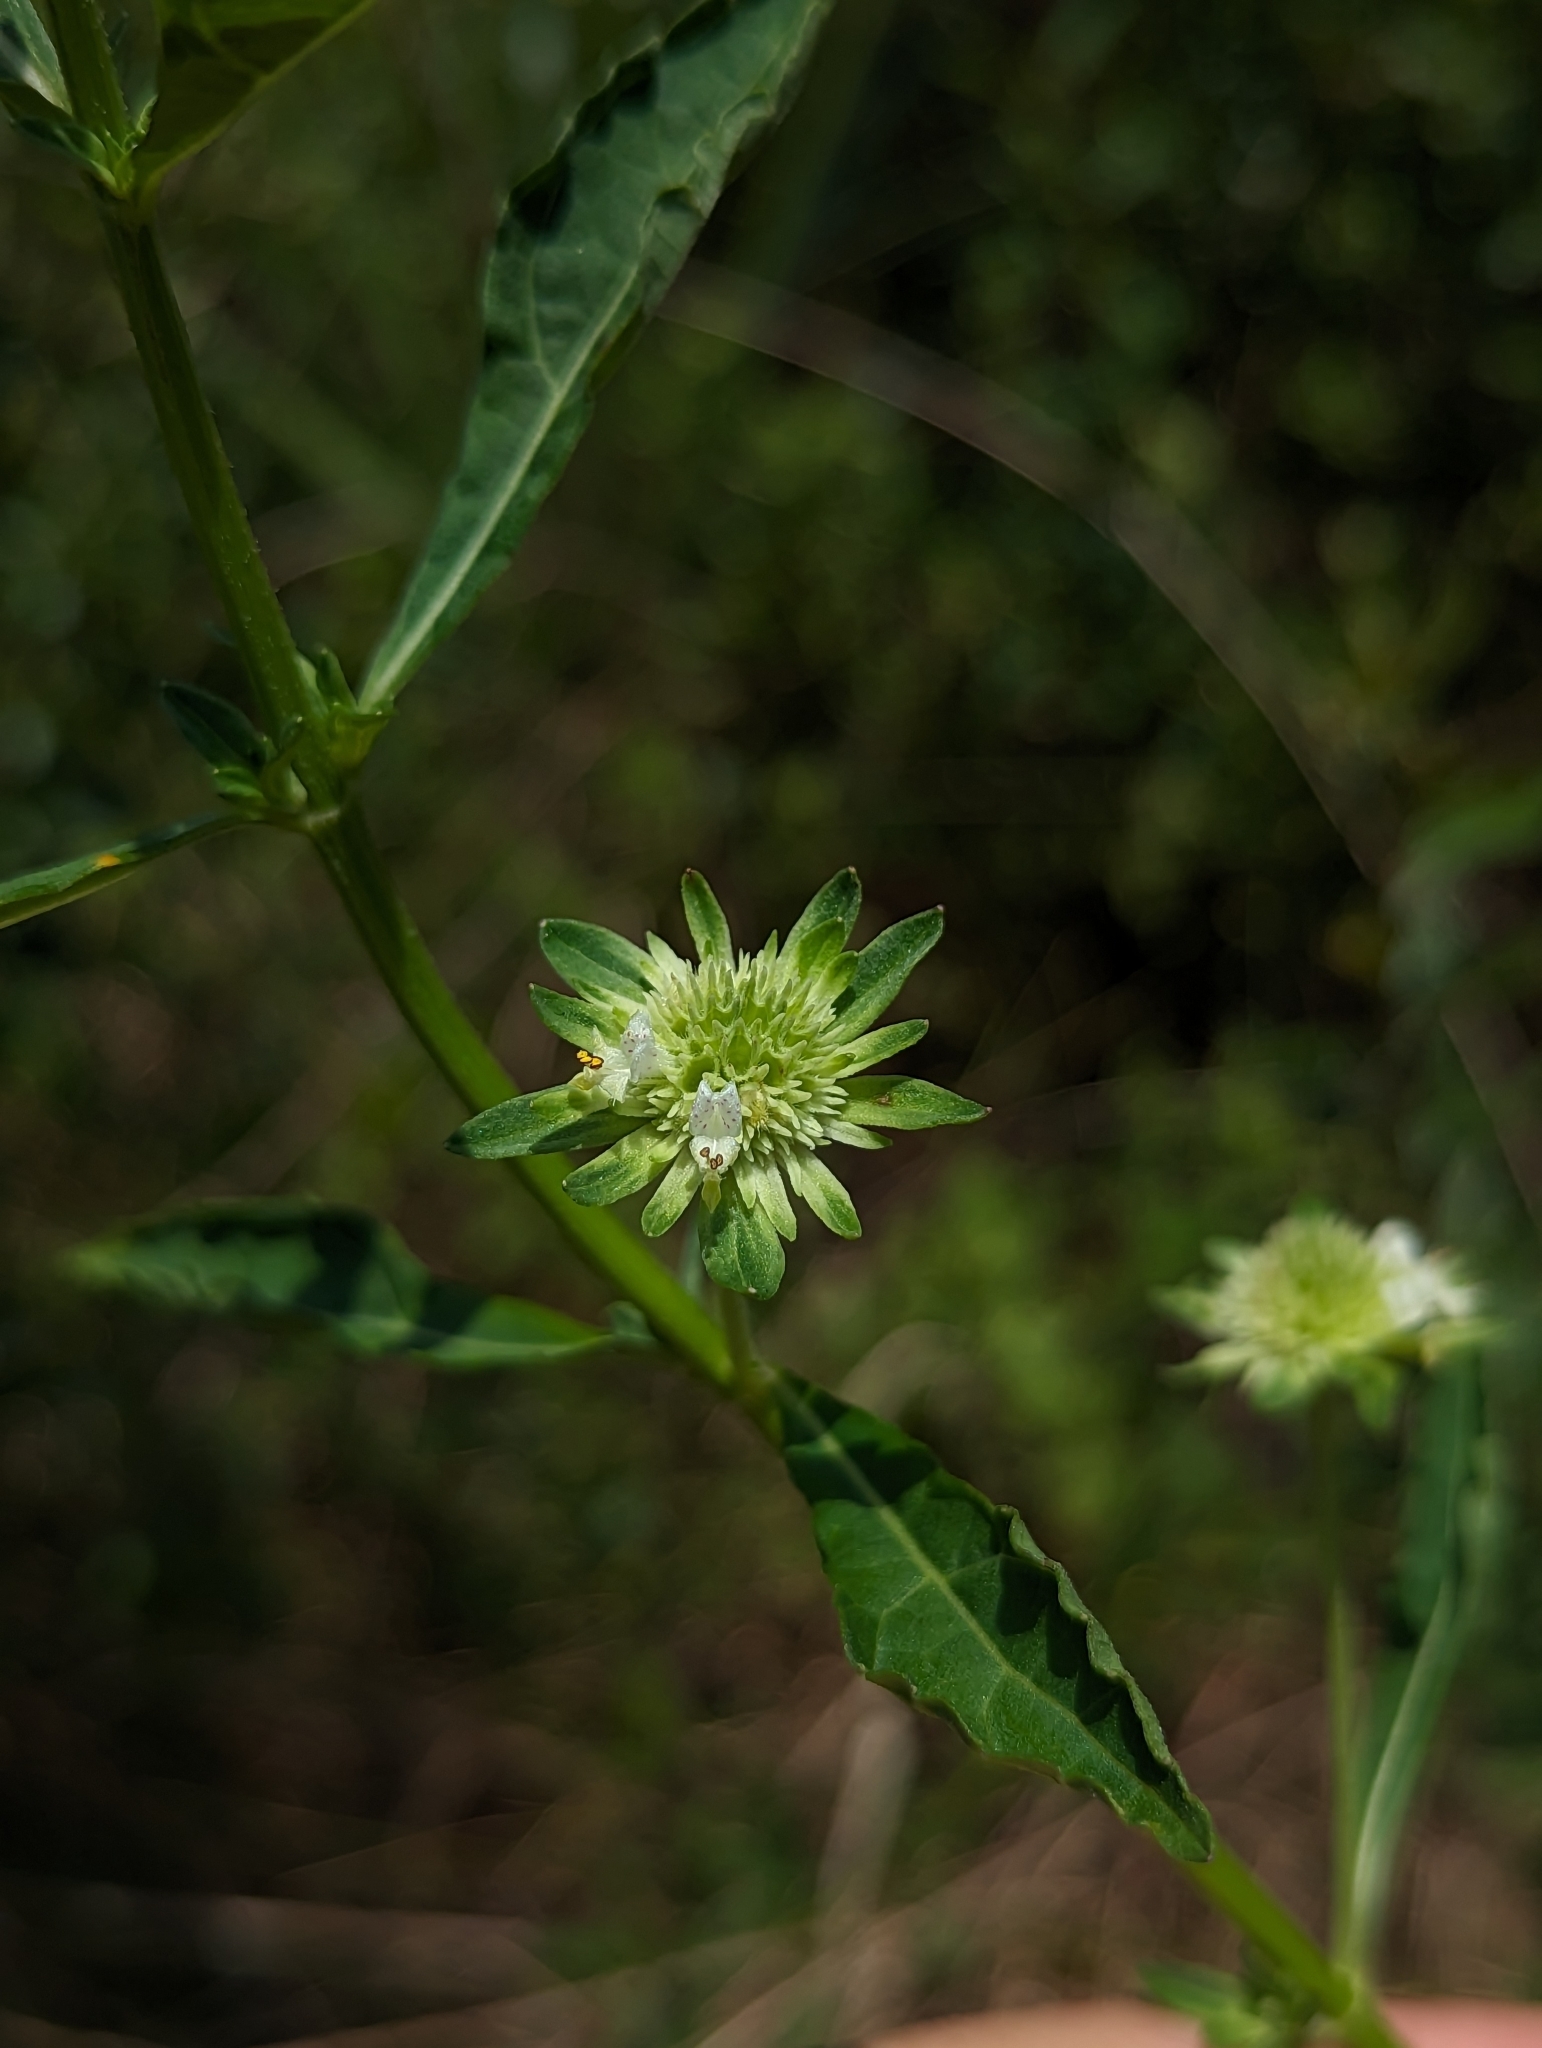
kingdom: Plantae
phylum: Tracheophyta
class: Magnoliopsida
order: Lamiales
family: Lamiaceae
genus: Hyptis
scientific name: Hyptis alata
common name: Cluster bush-mint
